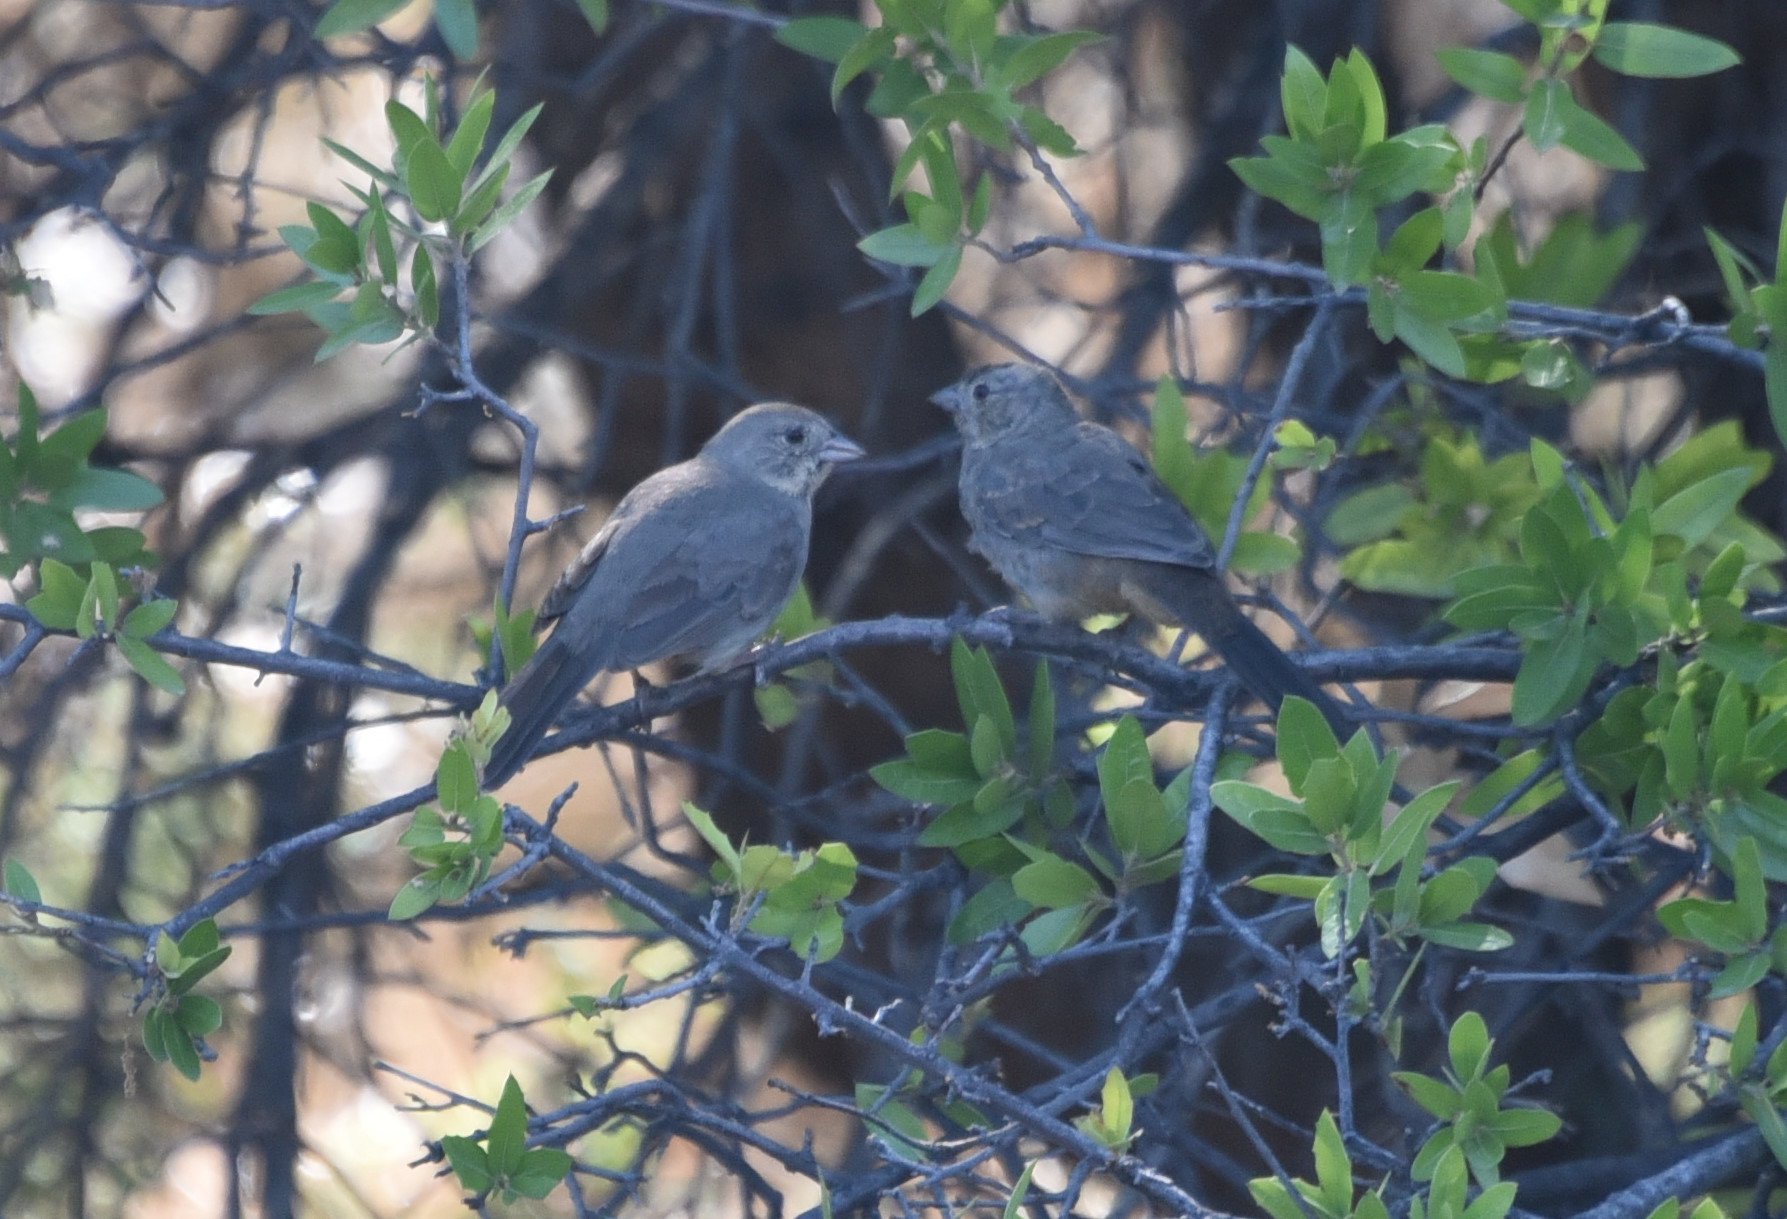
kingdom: Animalia
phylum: Chordata
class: Aves
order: Passeriformes
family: Passerellidae
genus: Melozone
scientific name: Melozone fusca
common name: Canyon towhee
